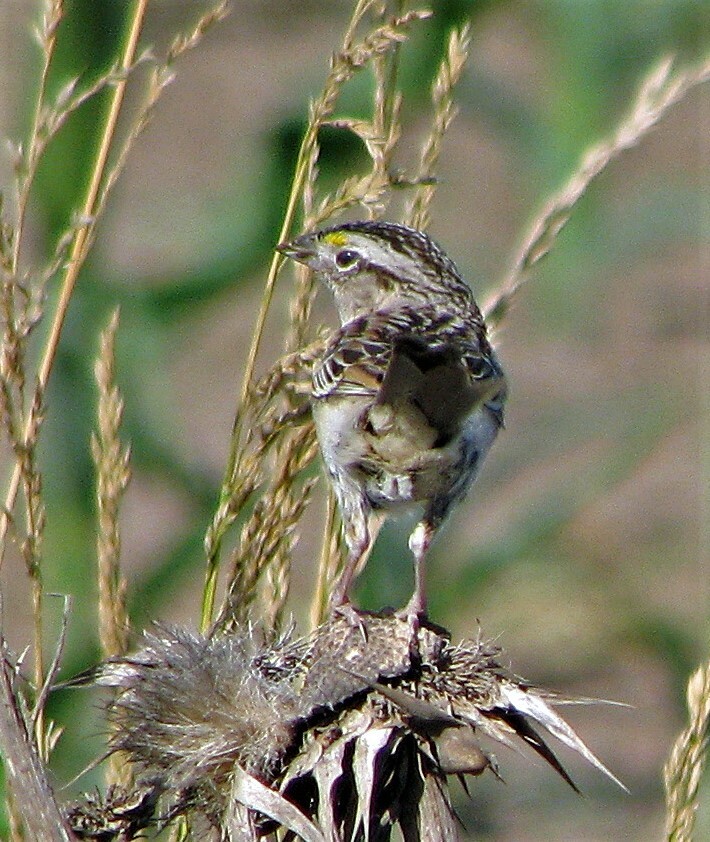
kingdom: Animalia
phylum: Chordata
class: Aves
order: Passeriformes
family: Passerellidae
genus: Ammodramus
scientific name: Ammodramus humeralis
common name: Grassland sparrow
